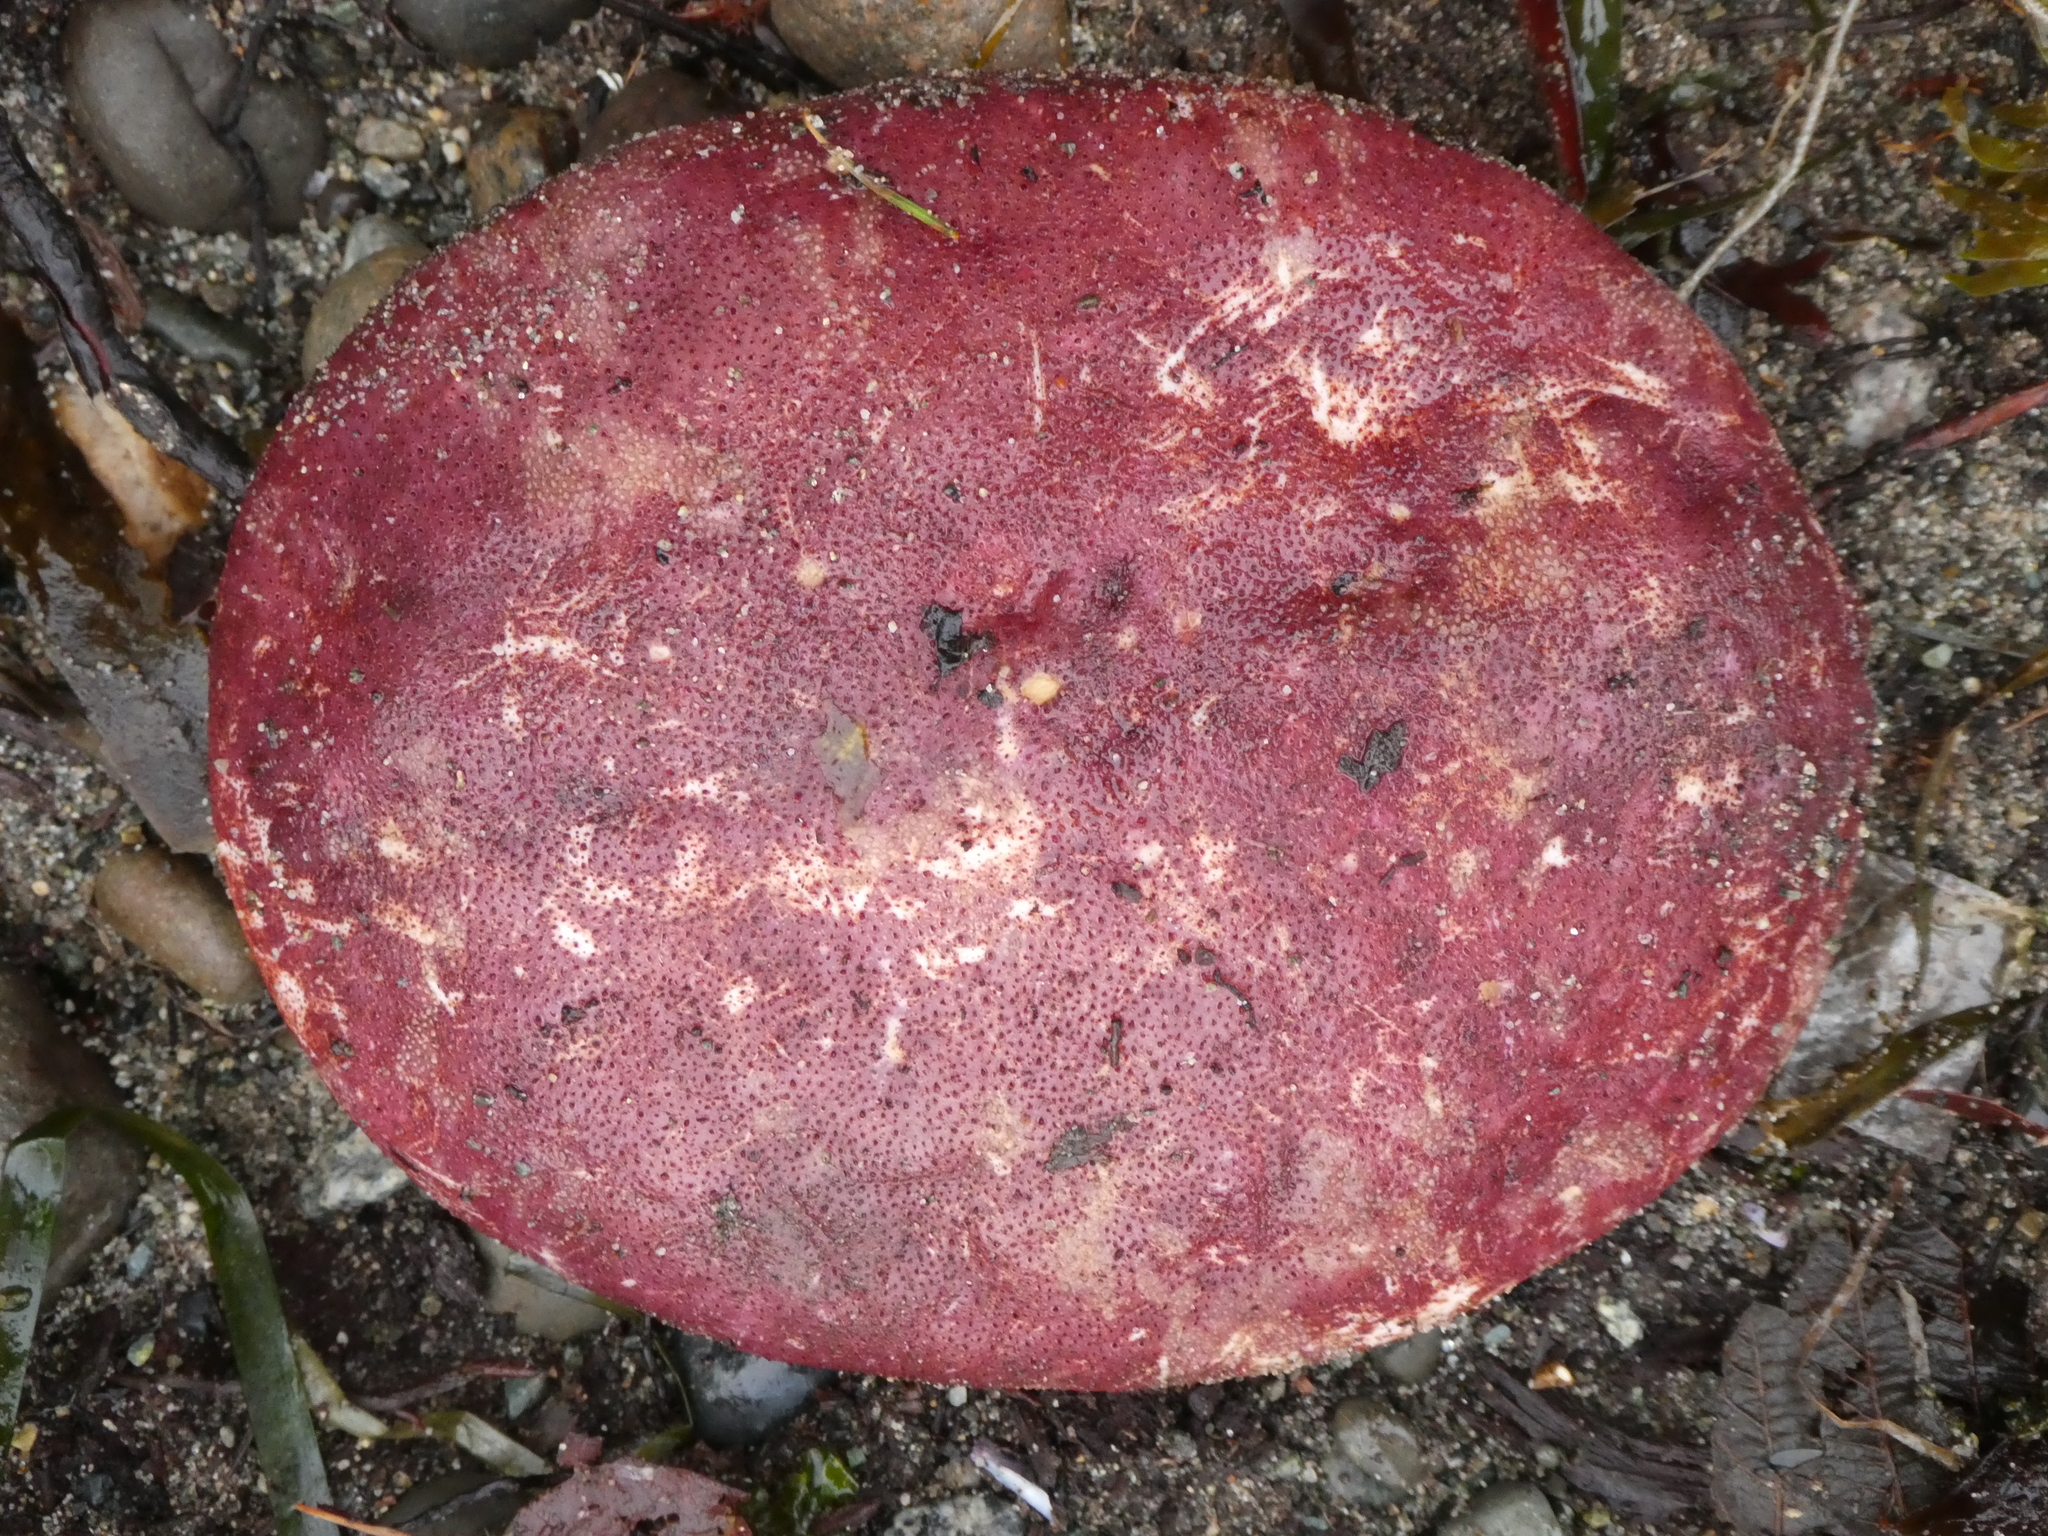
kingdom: Animalia
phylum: Mollusca
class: Polyplacophora
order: Chitonida
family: Acanthochitonidae
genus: Cryptochiton
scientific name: Cryptochiton stelleri
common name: Giant pacific chiton
